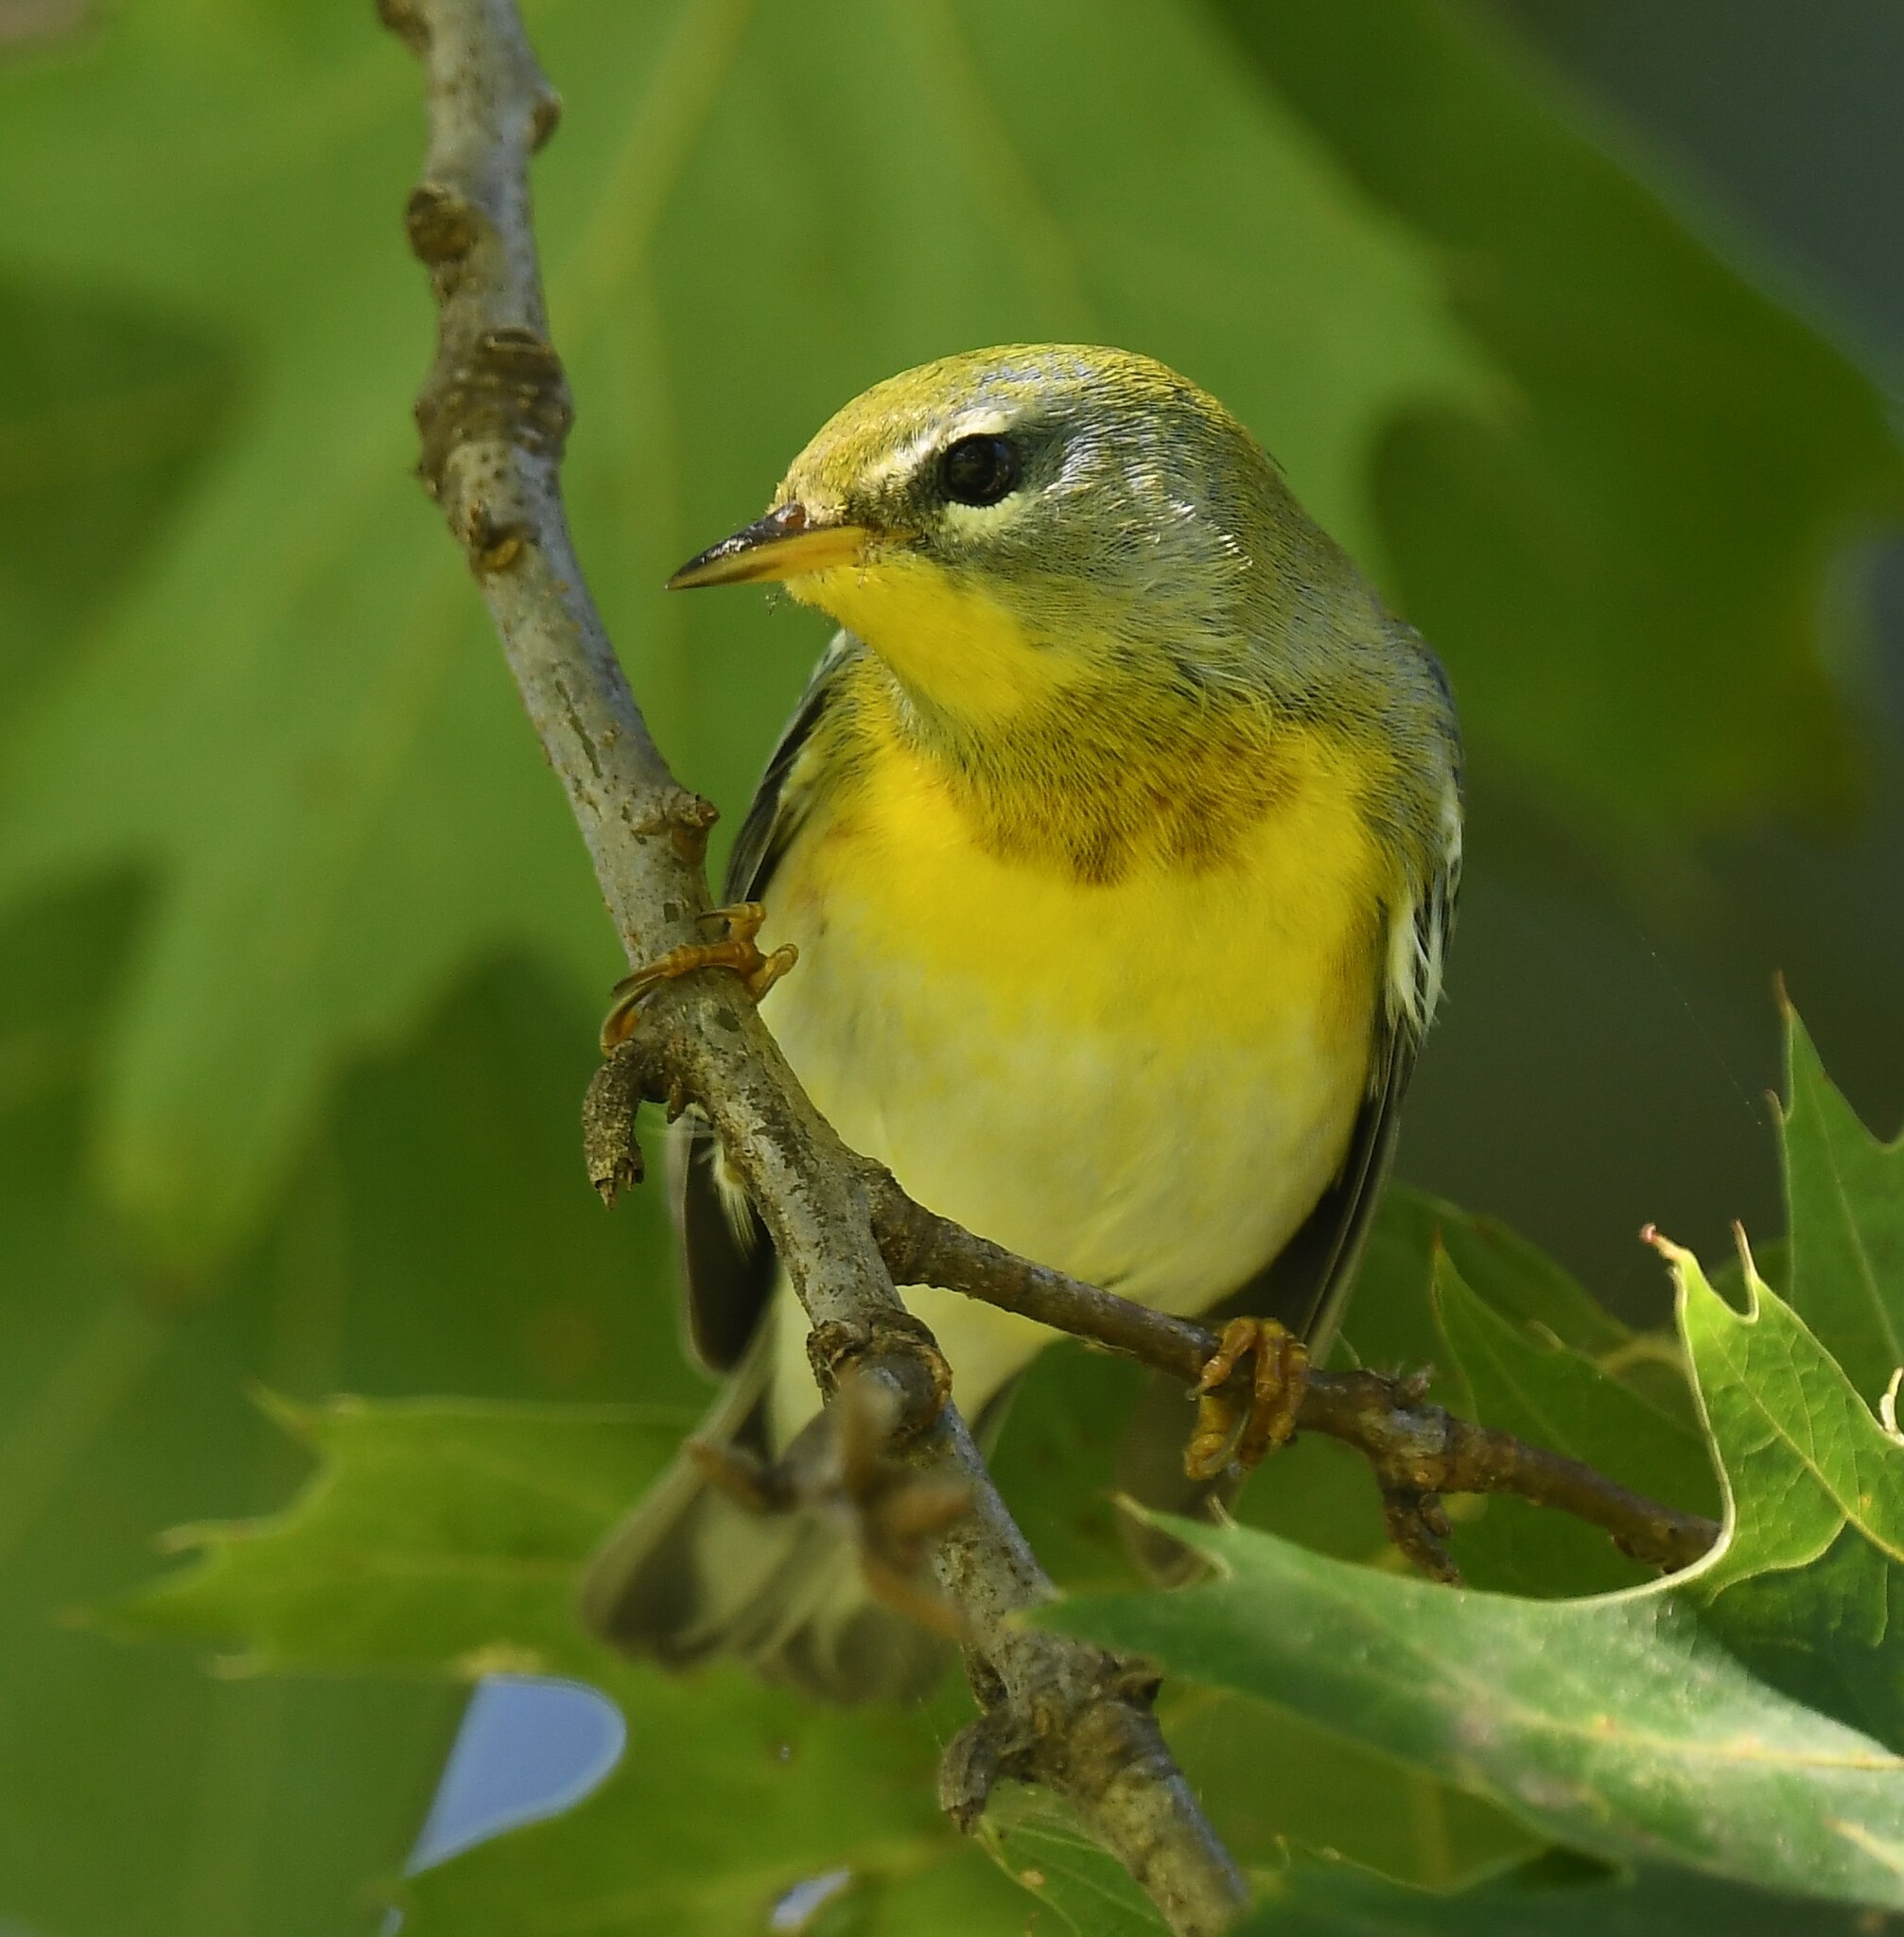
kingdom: Animalia
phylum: Chordata
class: Aves
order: Passeriformes
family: Parulidae
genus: Setophaga
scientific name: Setophaga americana
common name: Northern parula
